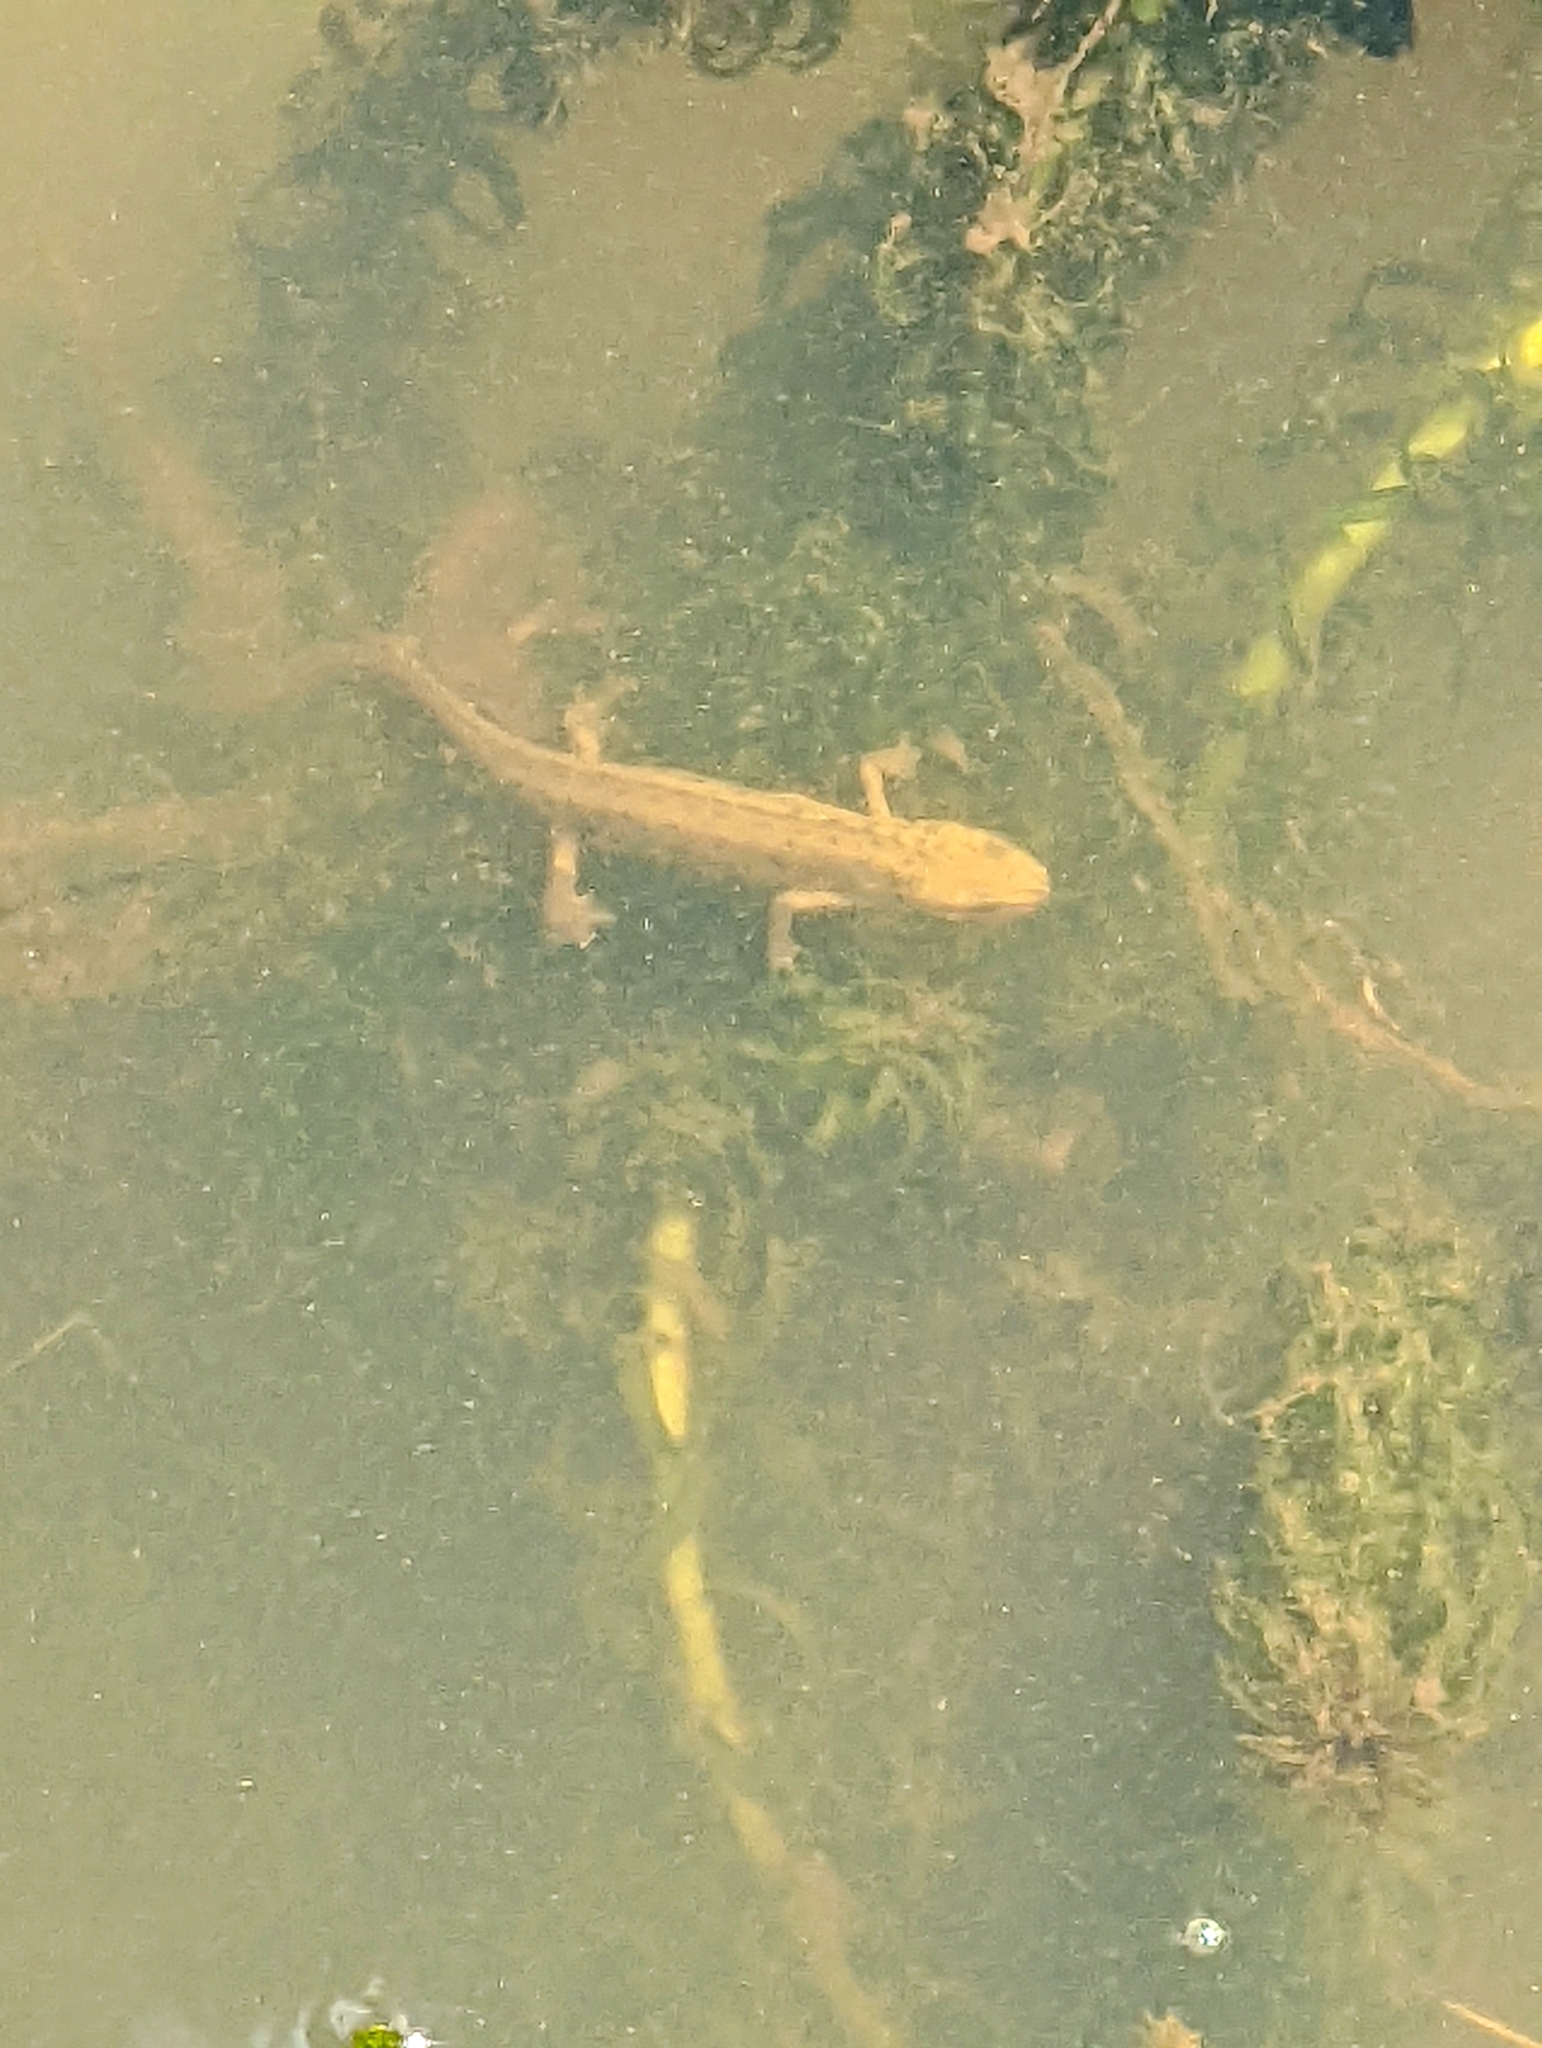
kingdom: Animalia
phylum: Chordata
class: Amphibia
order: Caudata
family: Salamandridae
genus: Lissotriton
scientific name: Lissotriton vulgaris
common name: Smooth newt
